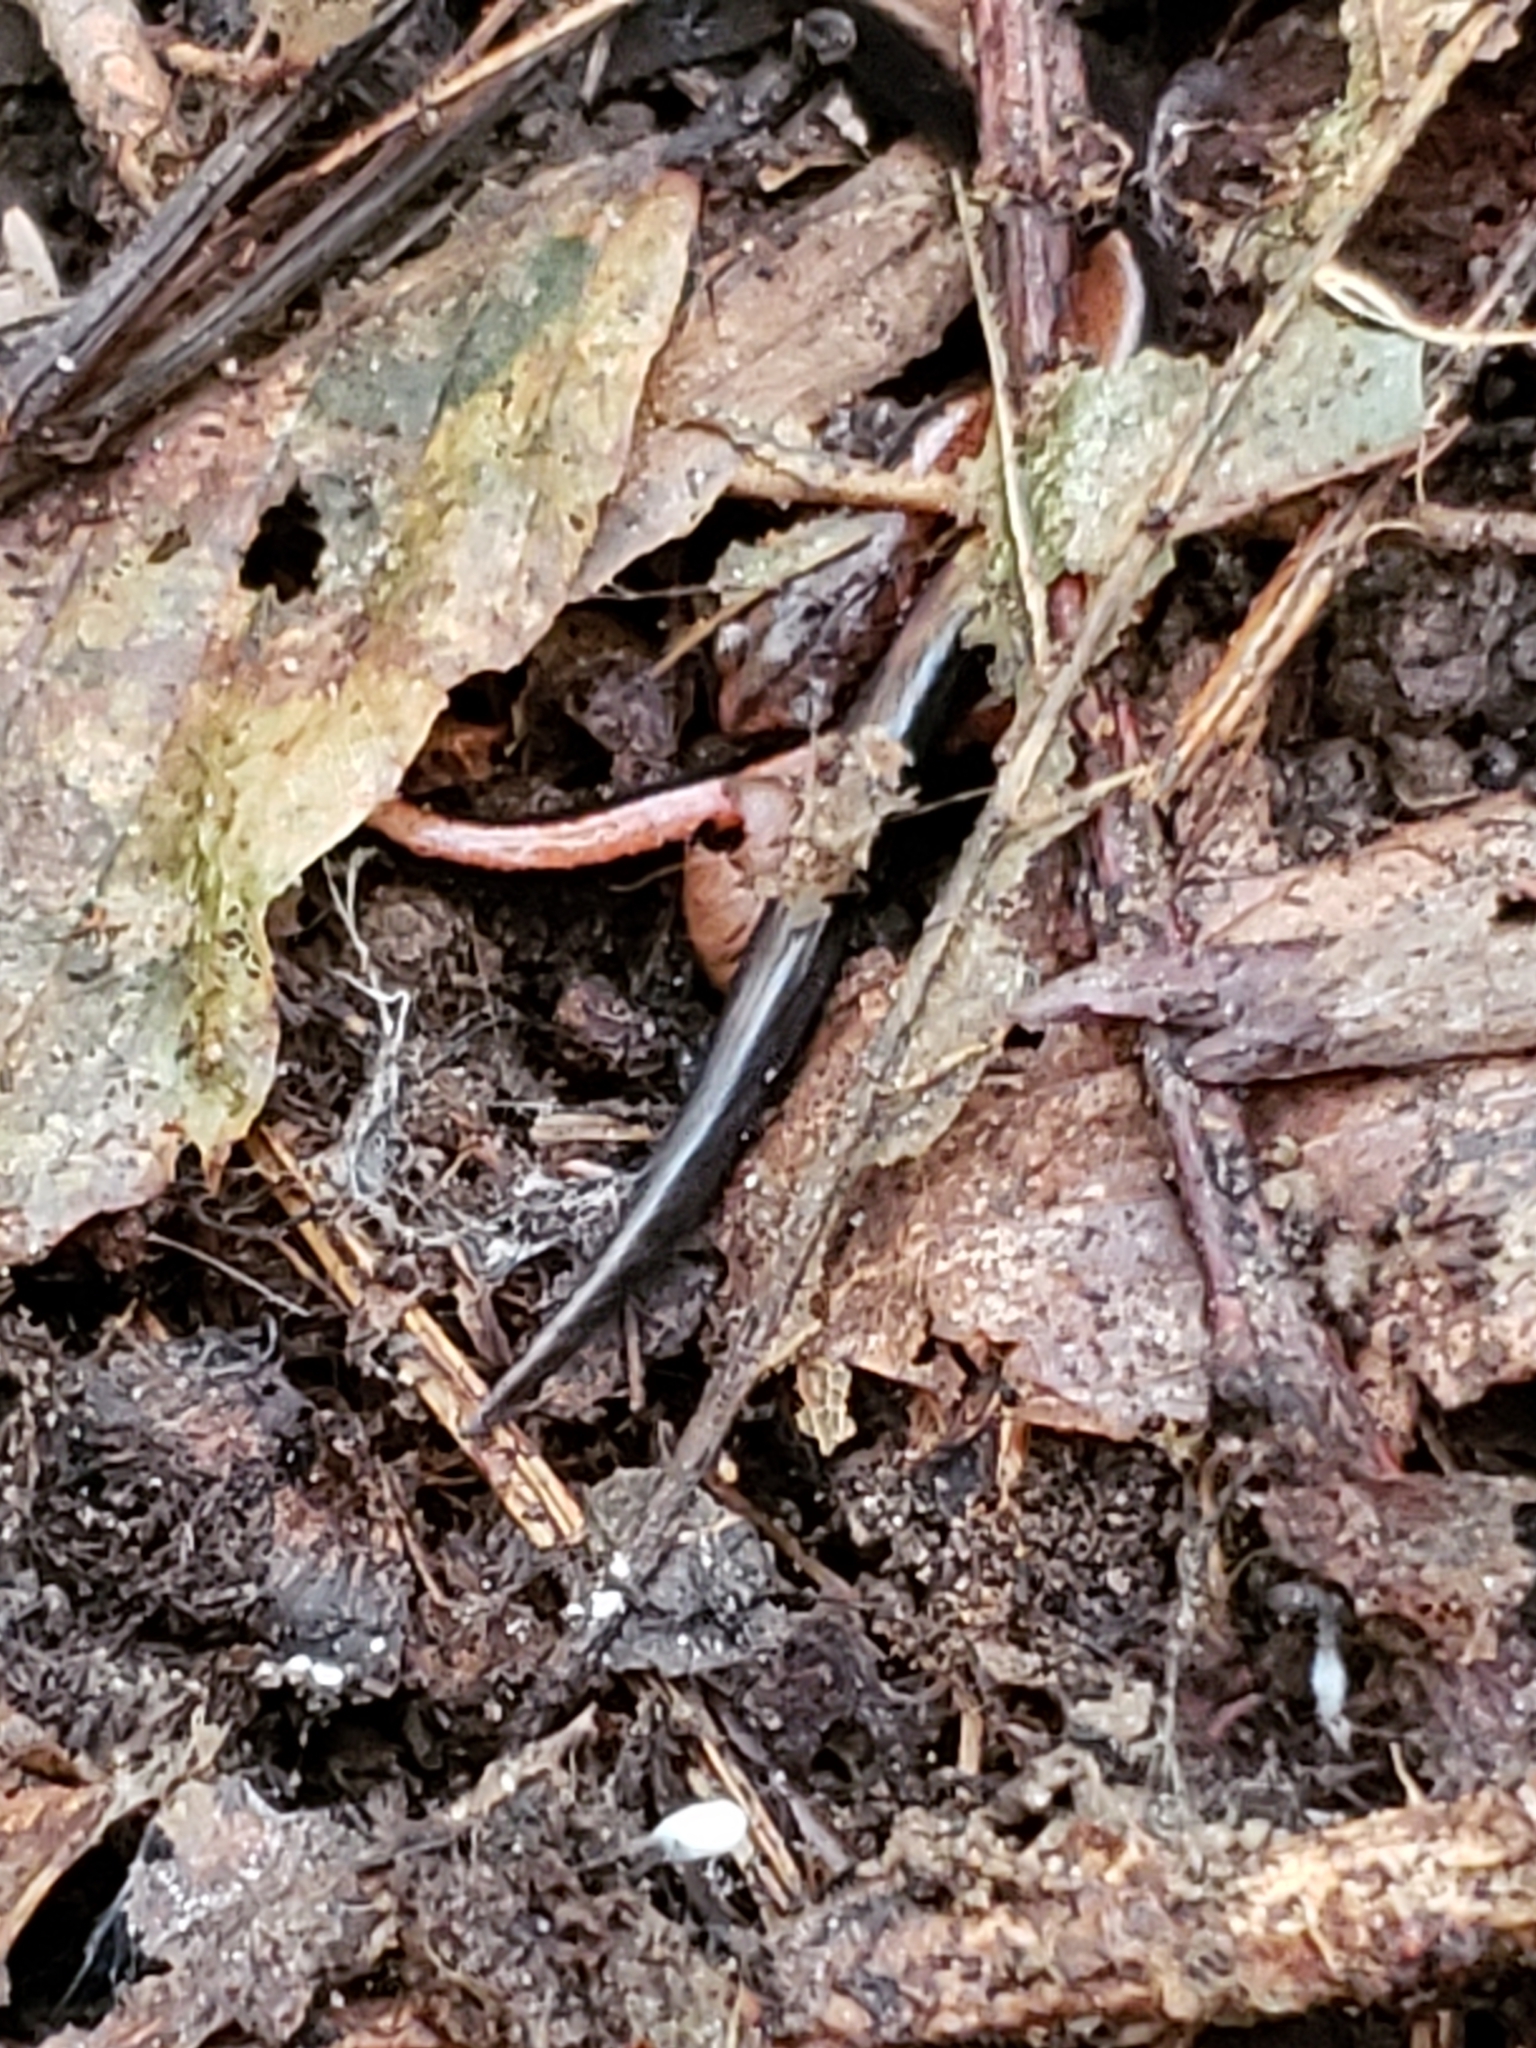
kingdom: Animalia
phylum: Chordata
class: Amphibia
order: Caudata
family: Plethodontidae
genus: Plethodon
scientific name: Plethodon cinereus
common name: Redback salamander
